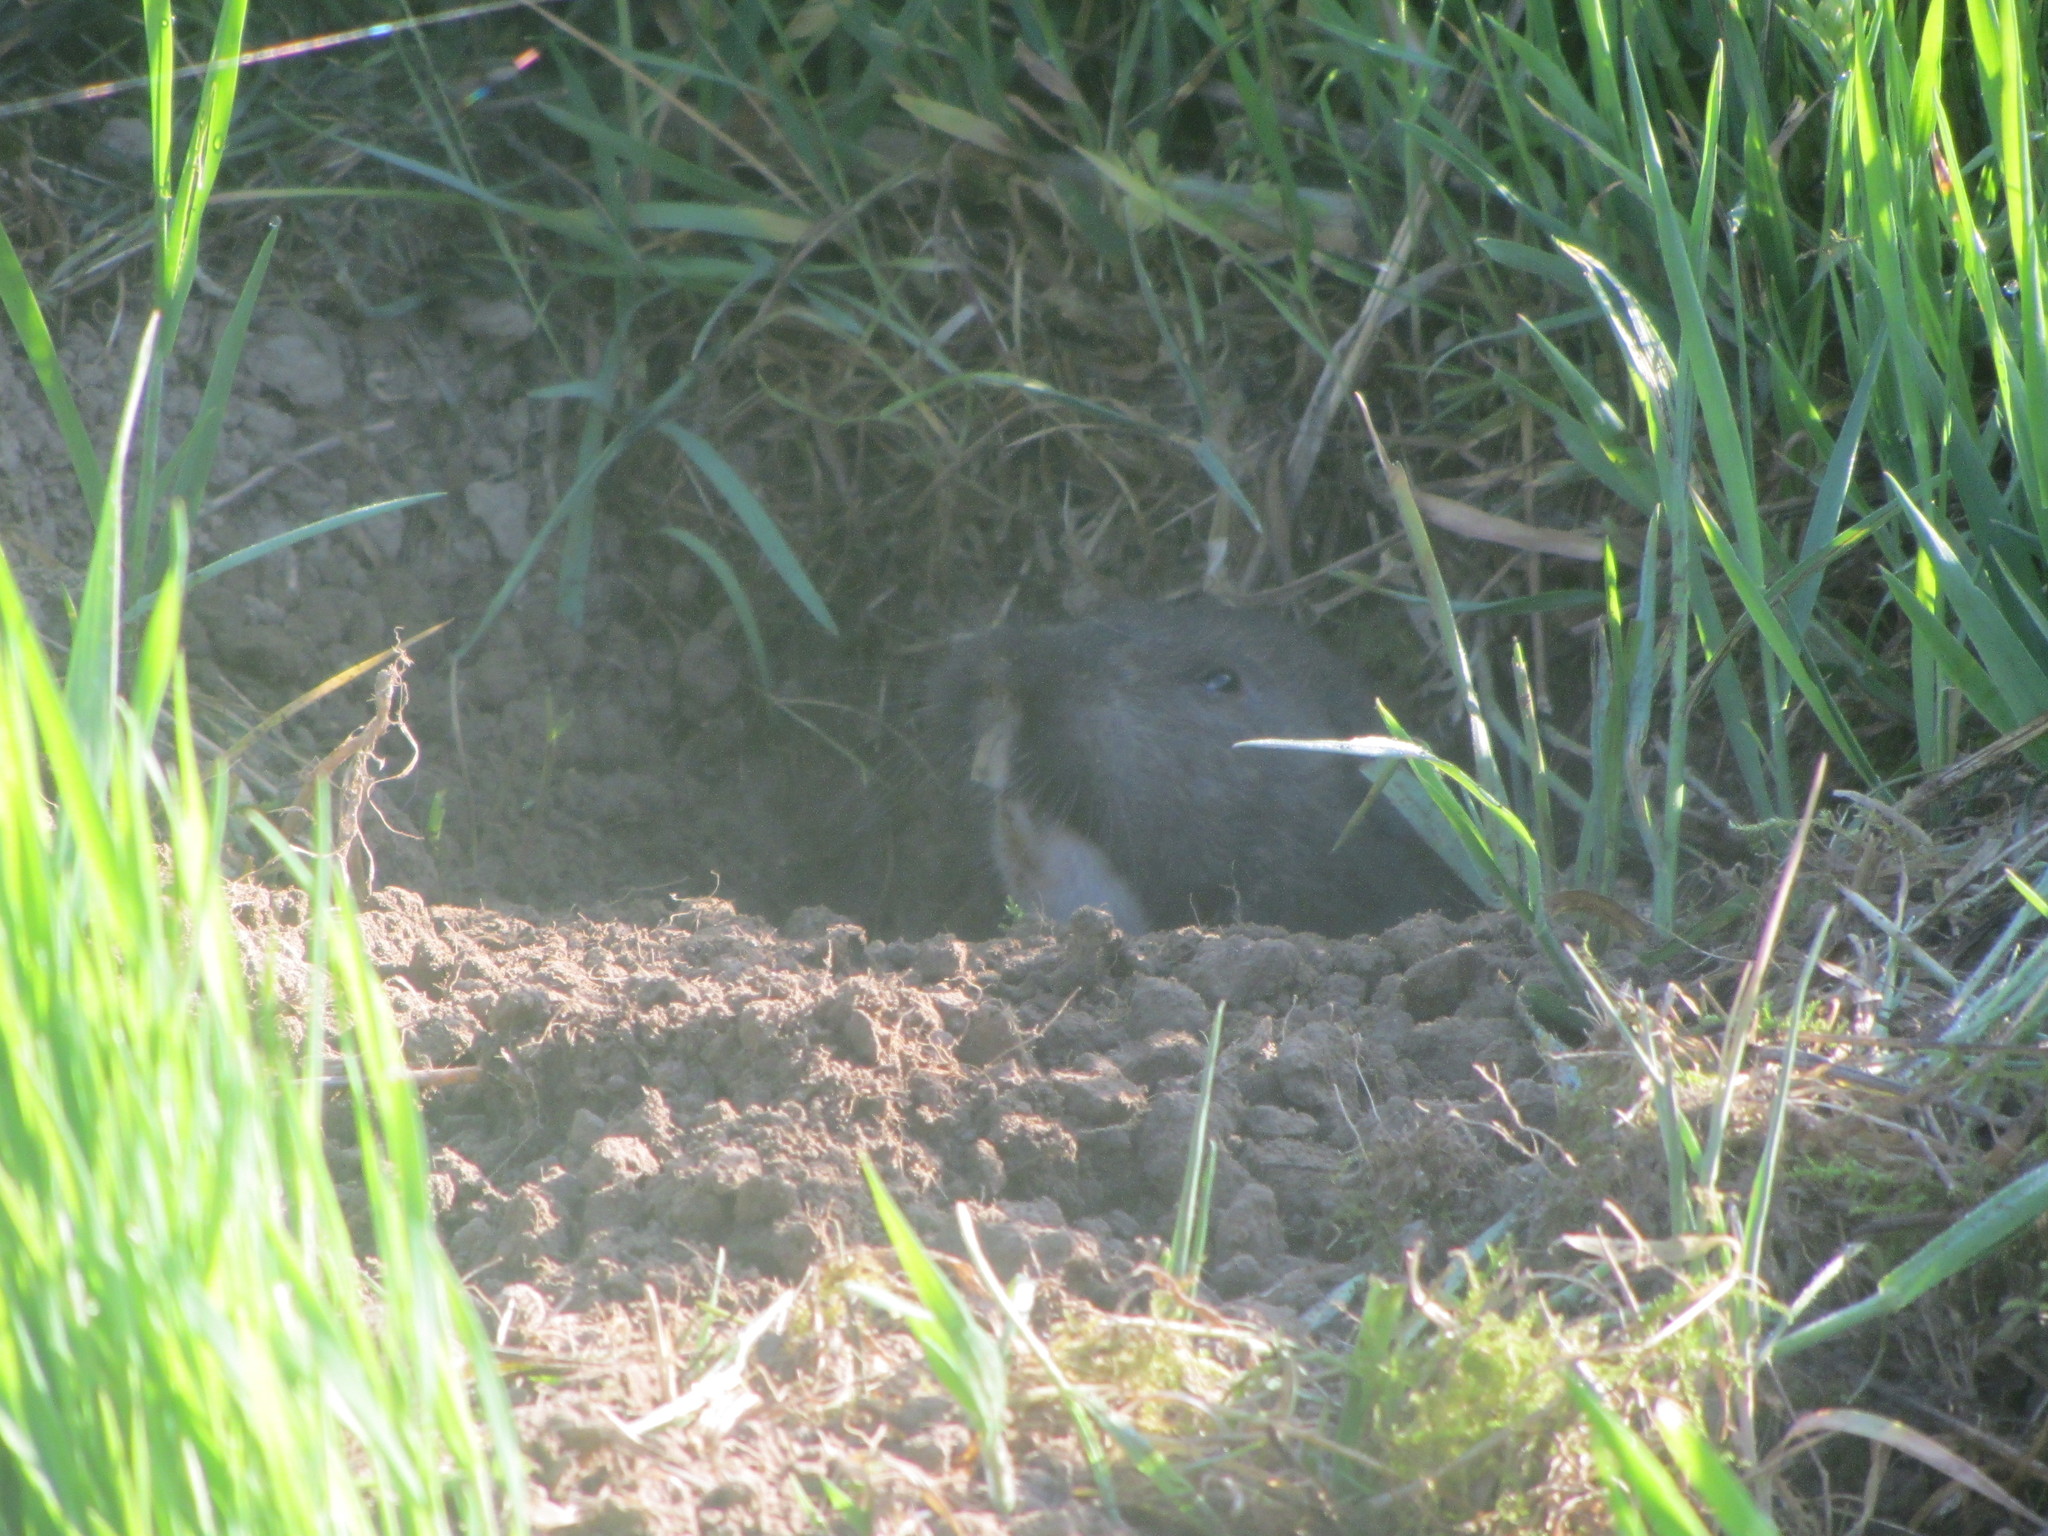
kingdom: Animalia
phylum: Chordata
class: Mammalia
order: Rodentia
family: Geomyidae
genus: Thomomys
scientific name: Thomomys bulbivorus
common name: Camas pocket gopher
